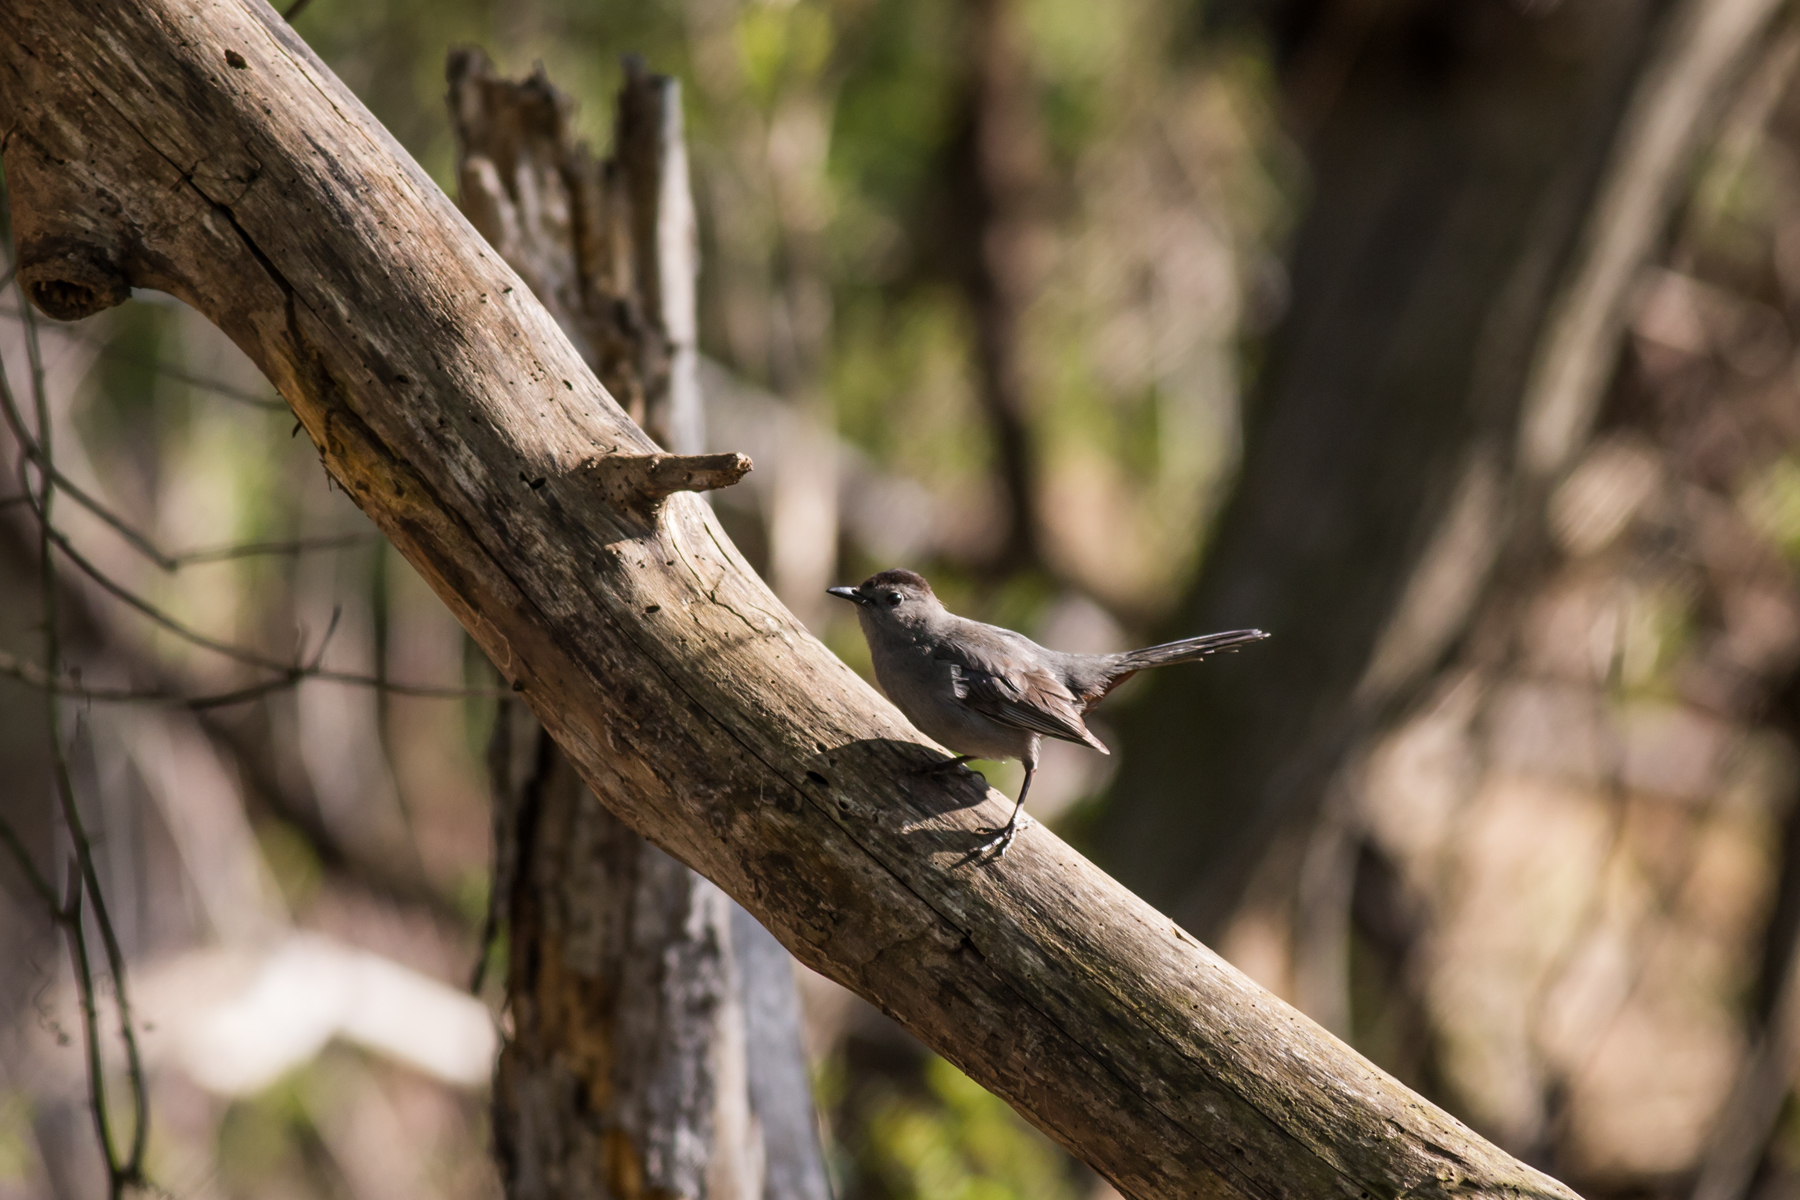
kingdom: Animalia
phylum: Chordata
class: Aves
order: Passeriformes
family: Mimidae
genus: Dumetella
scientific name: Dumetella carolinensis
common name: Gray catbird
